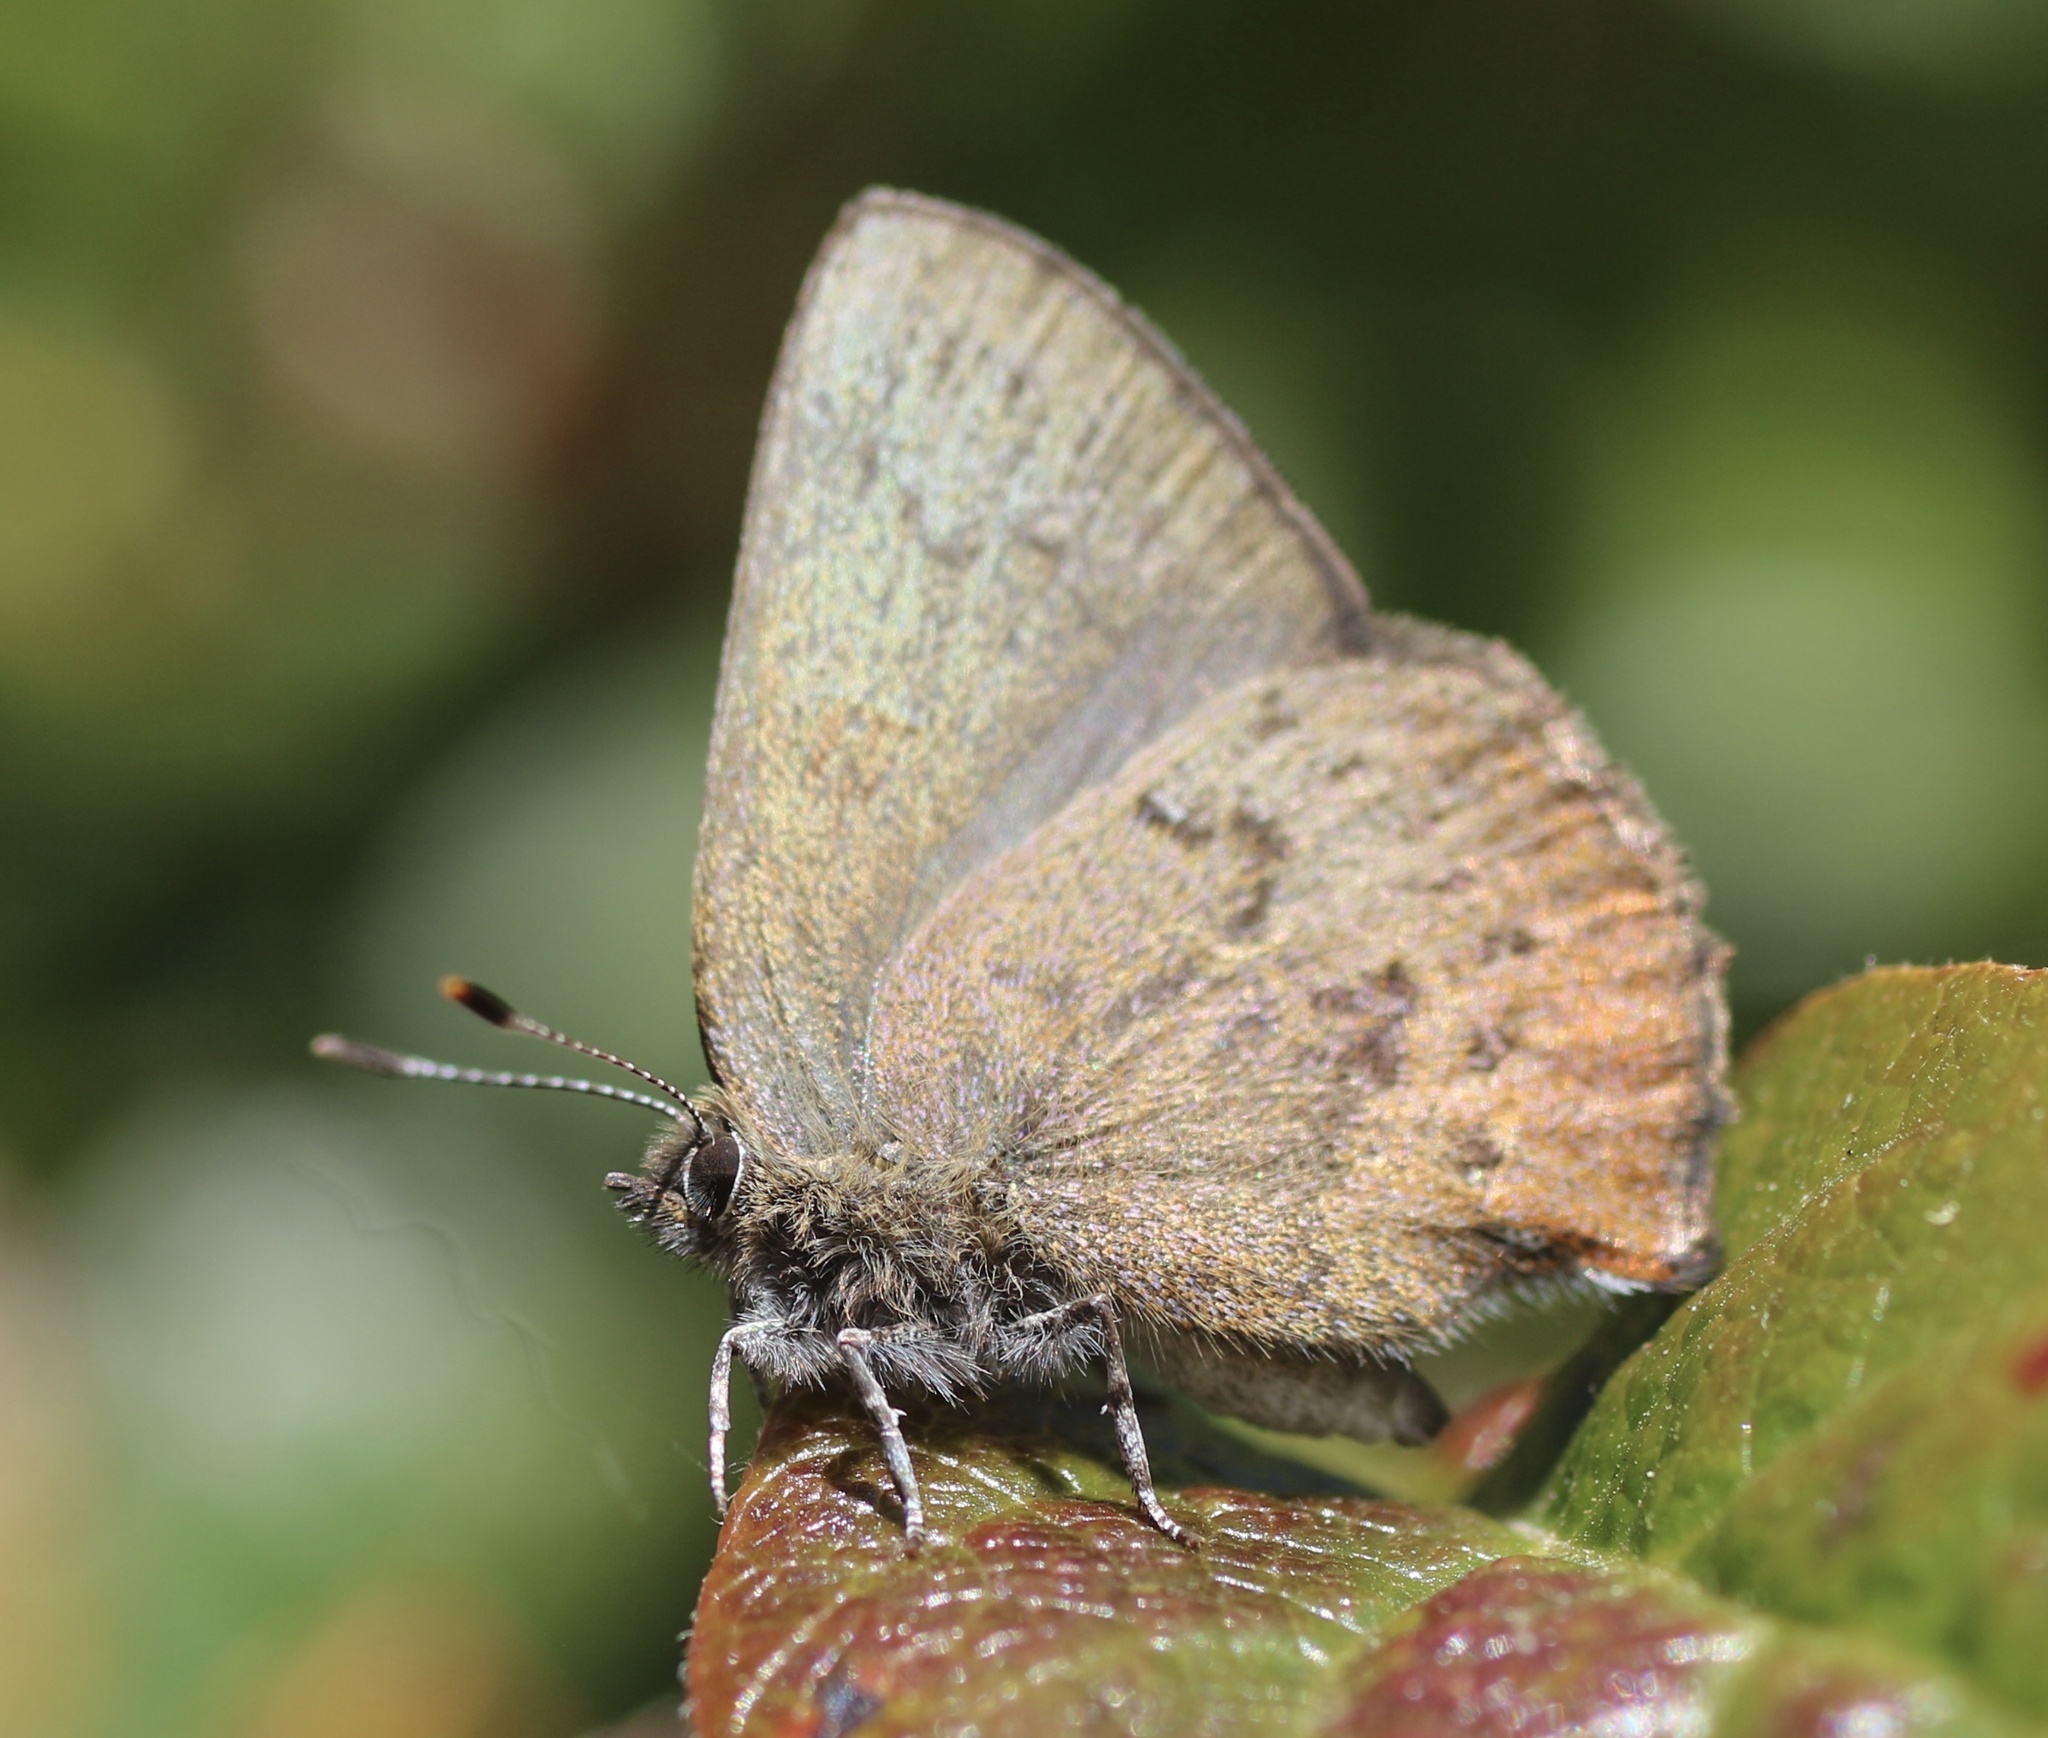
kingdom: Animalia
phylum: Arthropoda
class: Insecta
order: Lepidoptera
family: Lycaenidae
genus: Incisalia
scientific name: Incisalia irioides
